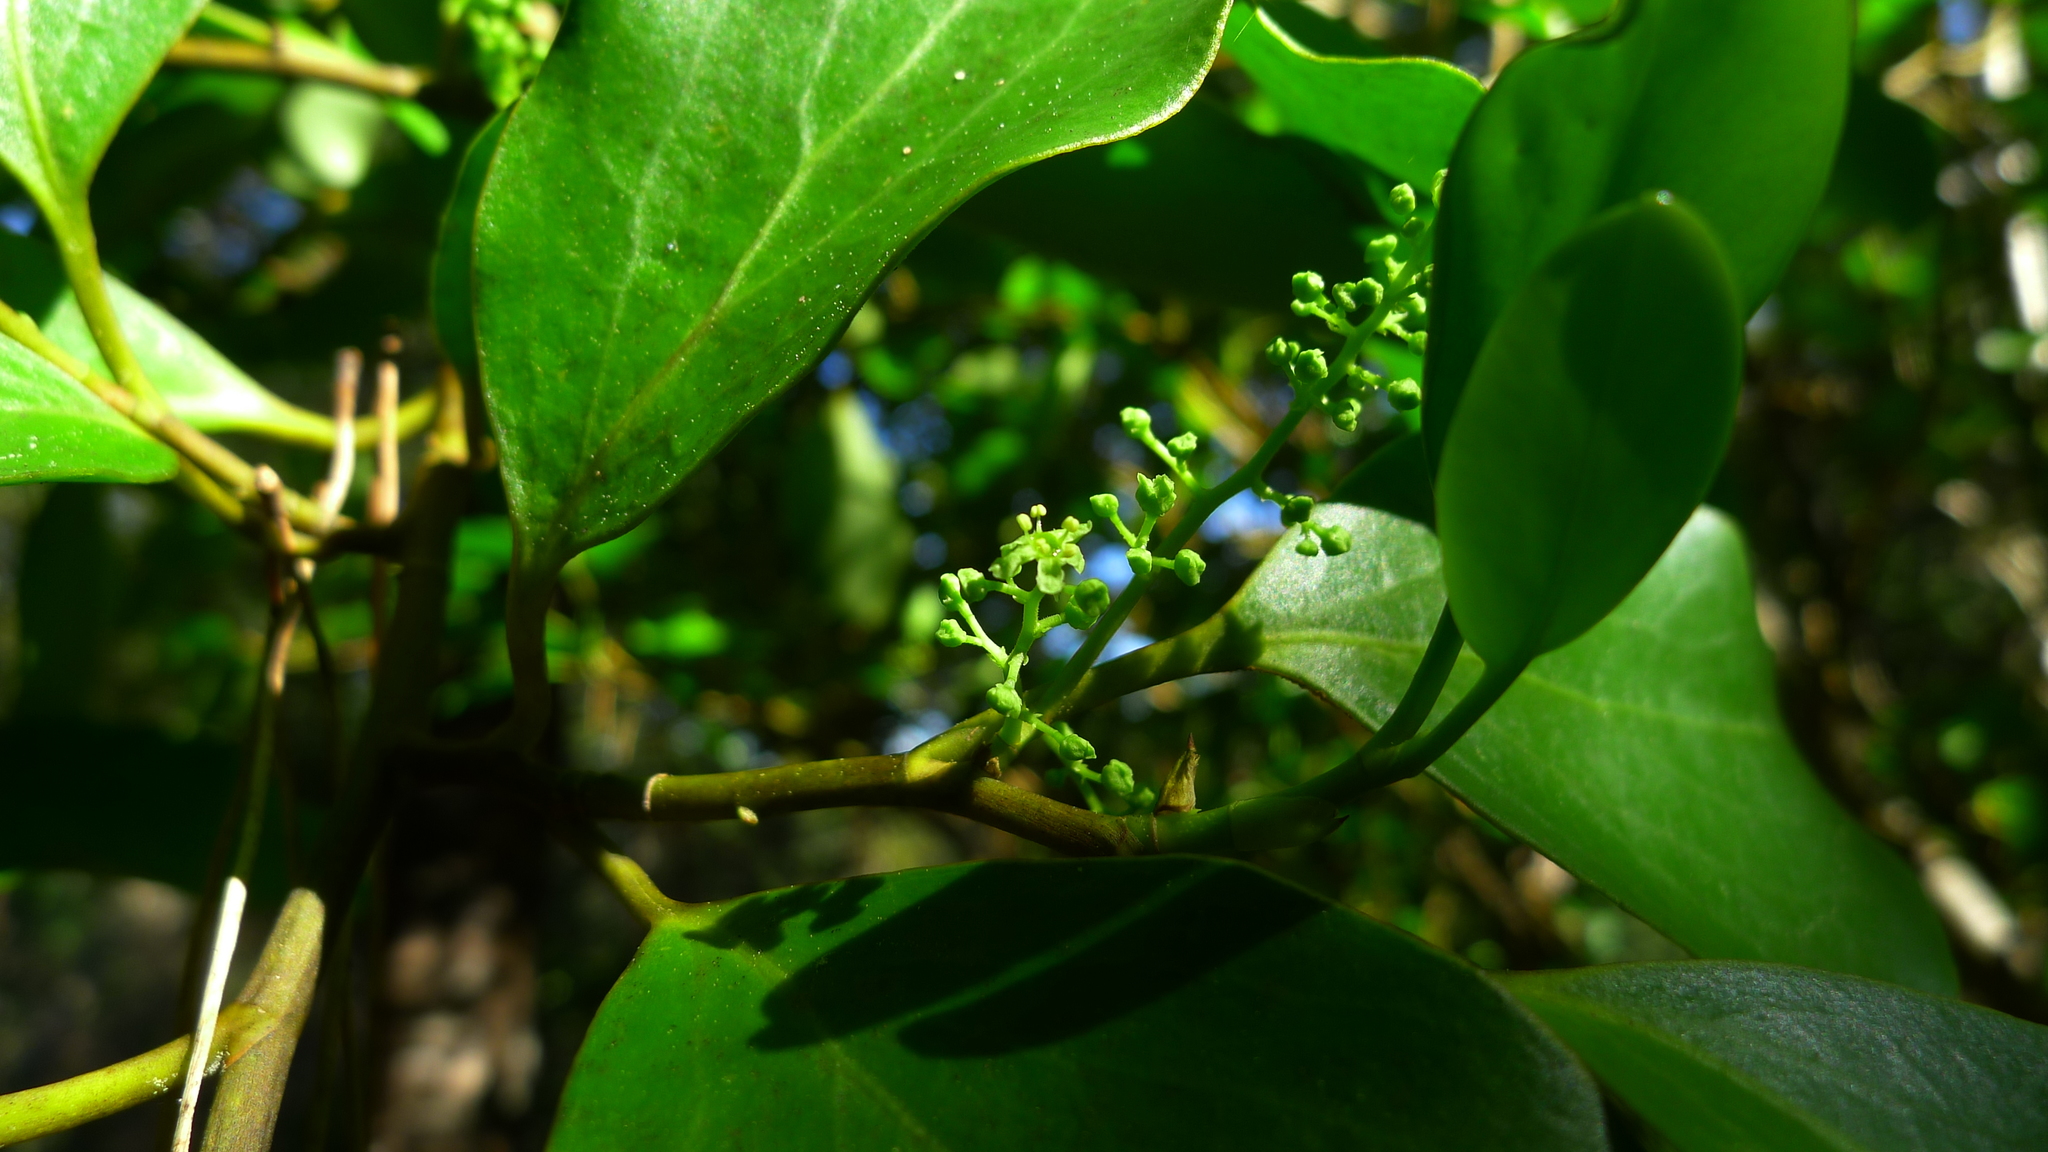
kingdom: Plantae
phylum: Tracheophyta
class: Magnoliopsida
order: Apiales
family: Griseliniaceae
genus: Griselinia
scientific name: Griselinia littoralis
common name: New zealand broadleaf
